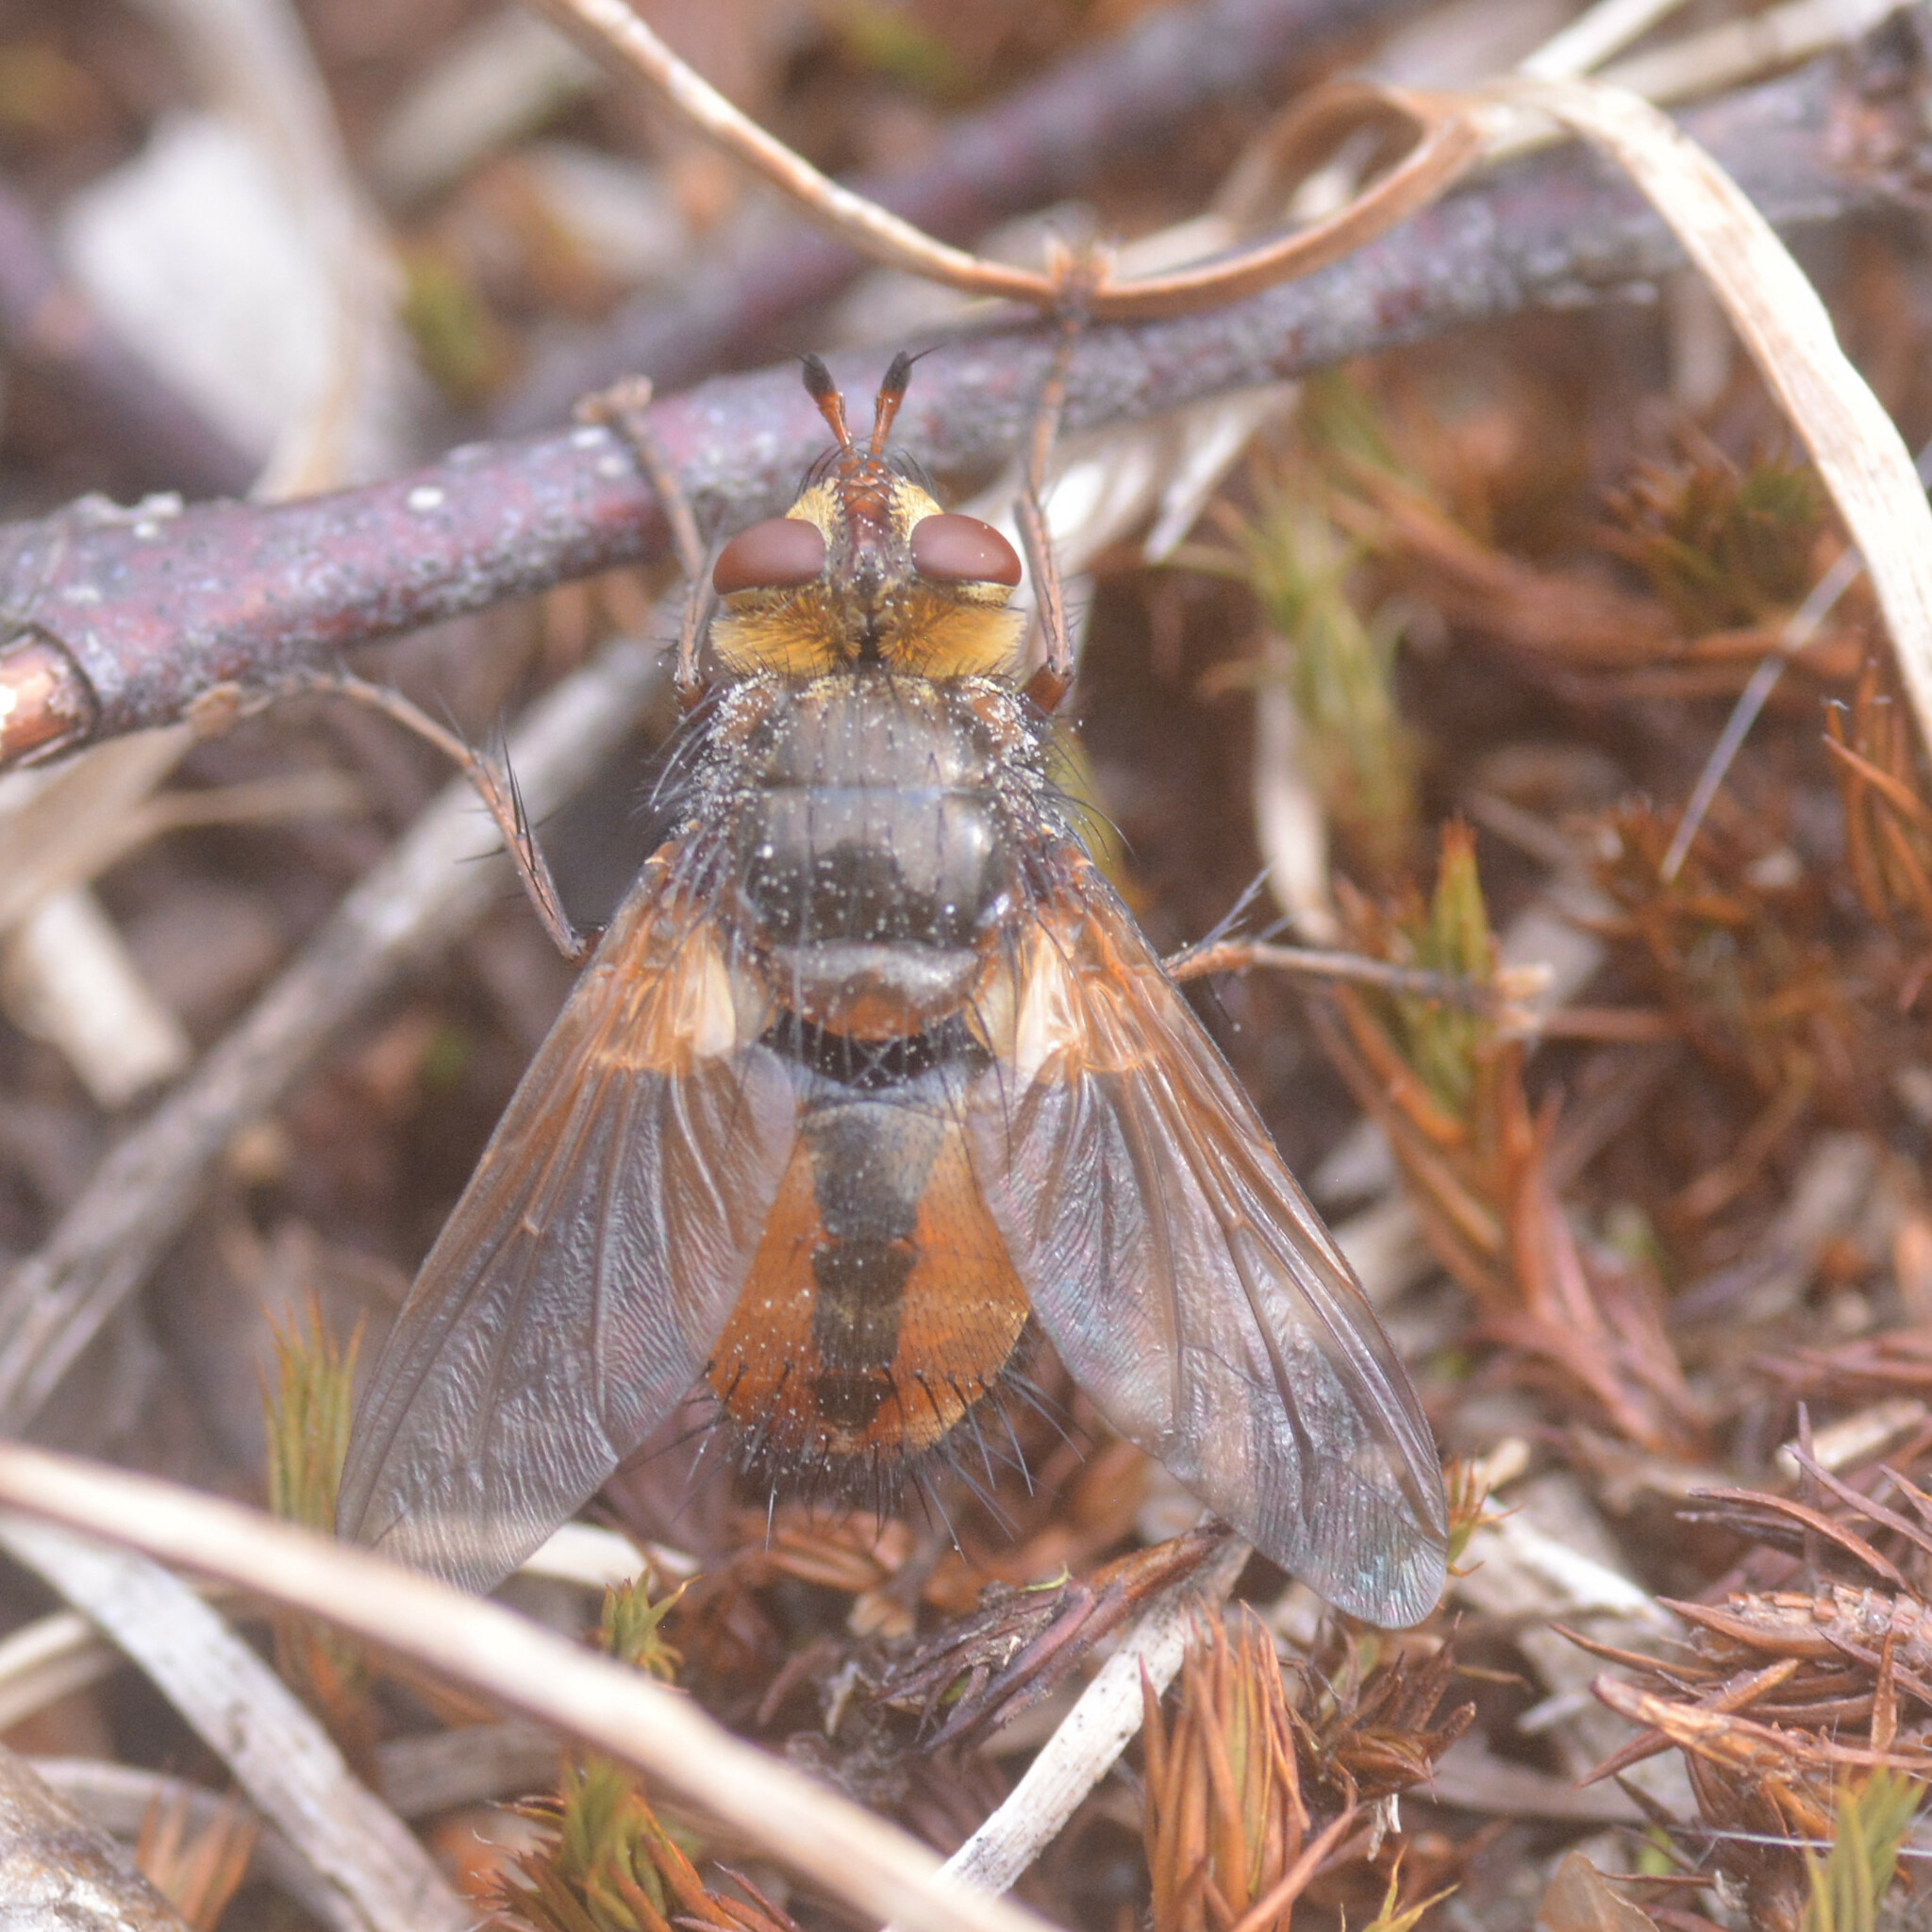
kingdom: Animalia
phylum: Arthropoda
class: Insecta
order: Diptera
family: Tachinidae
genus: Tachina
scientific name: Tachina fera
